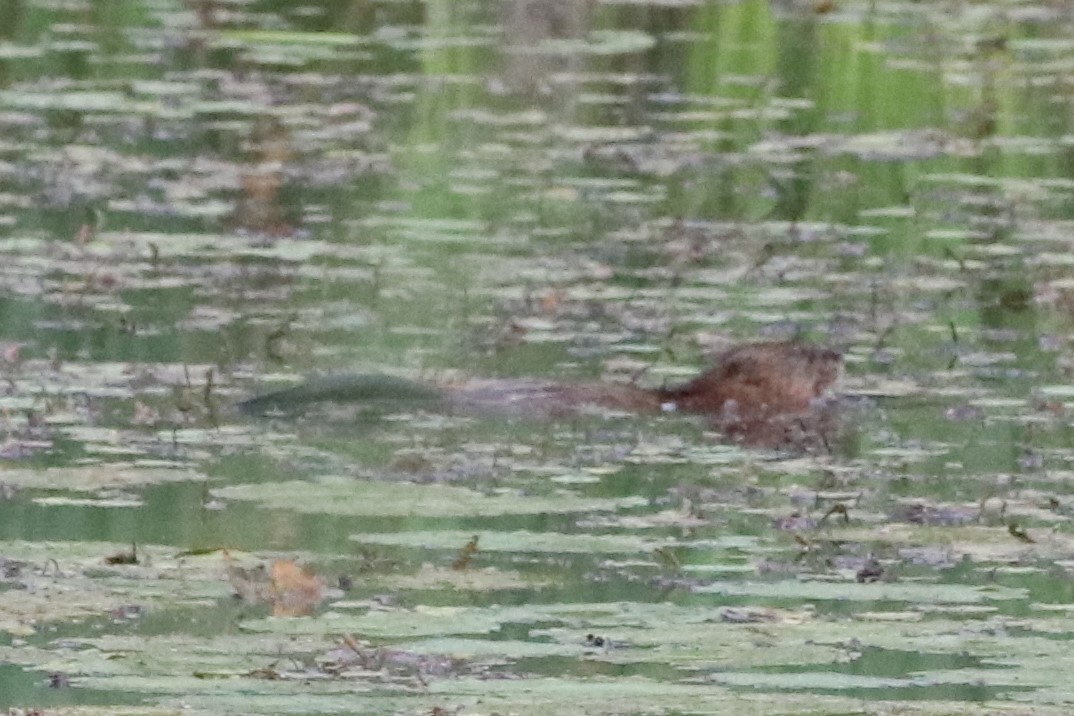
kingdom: Animalia
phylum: Chordata
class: Mammalia
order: Rodentia
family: Cricetidae
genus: Ondatra
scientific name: Ondatra zibethicus
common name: Muskrat
